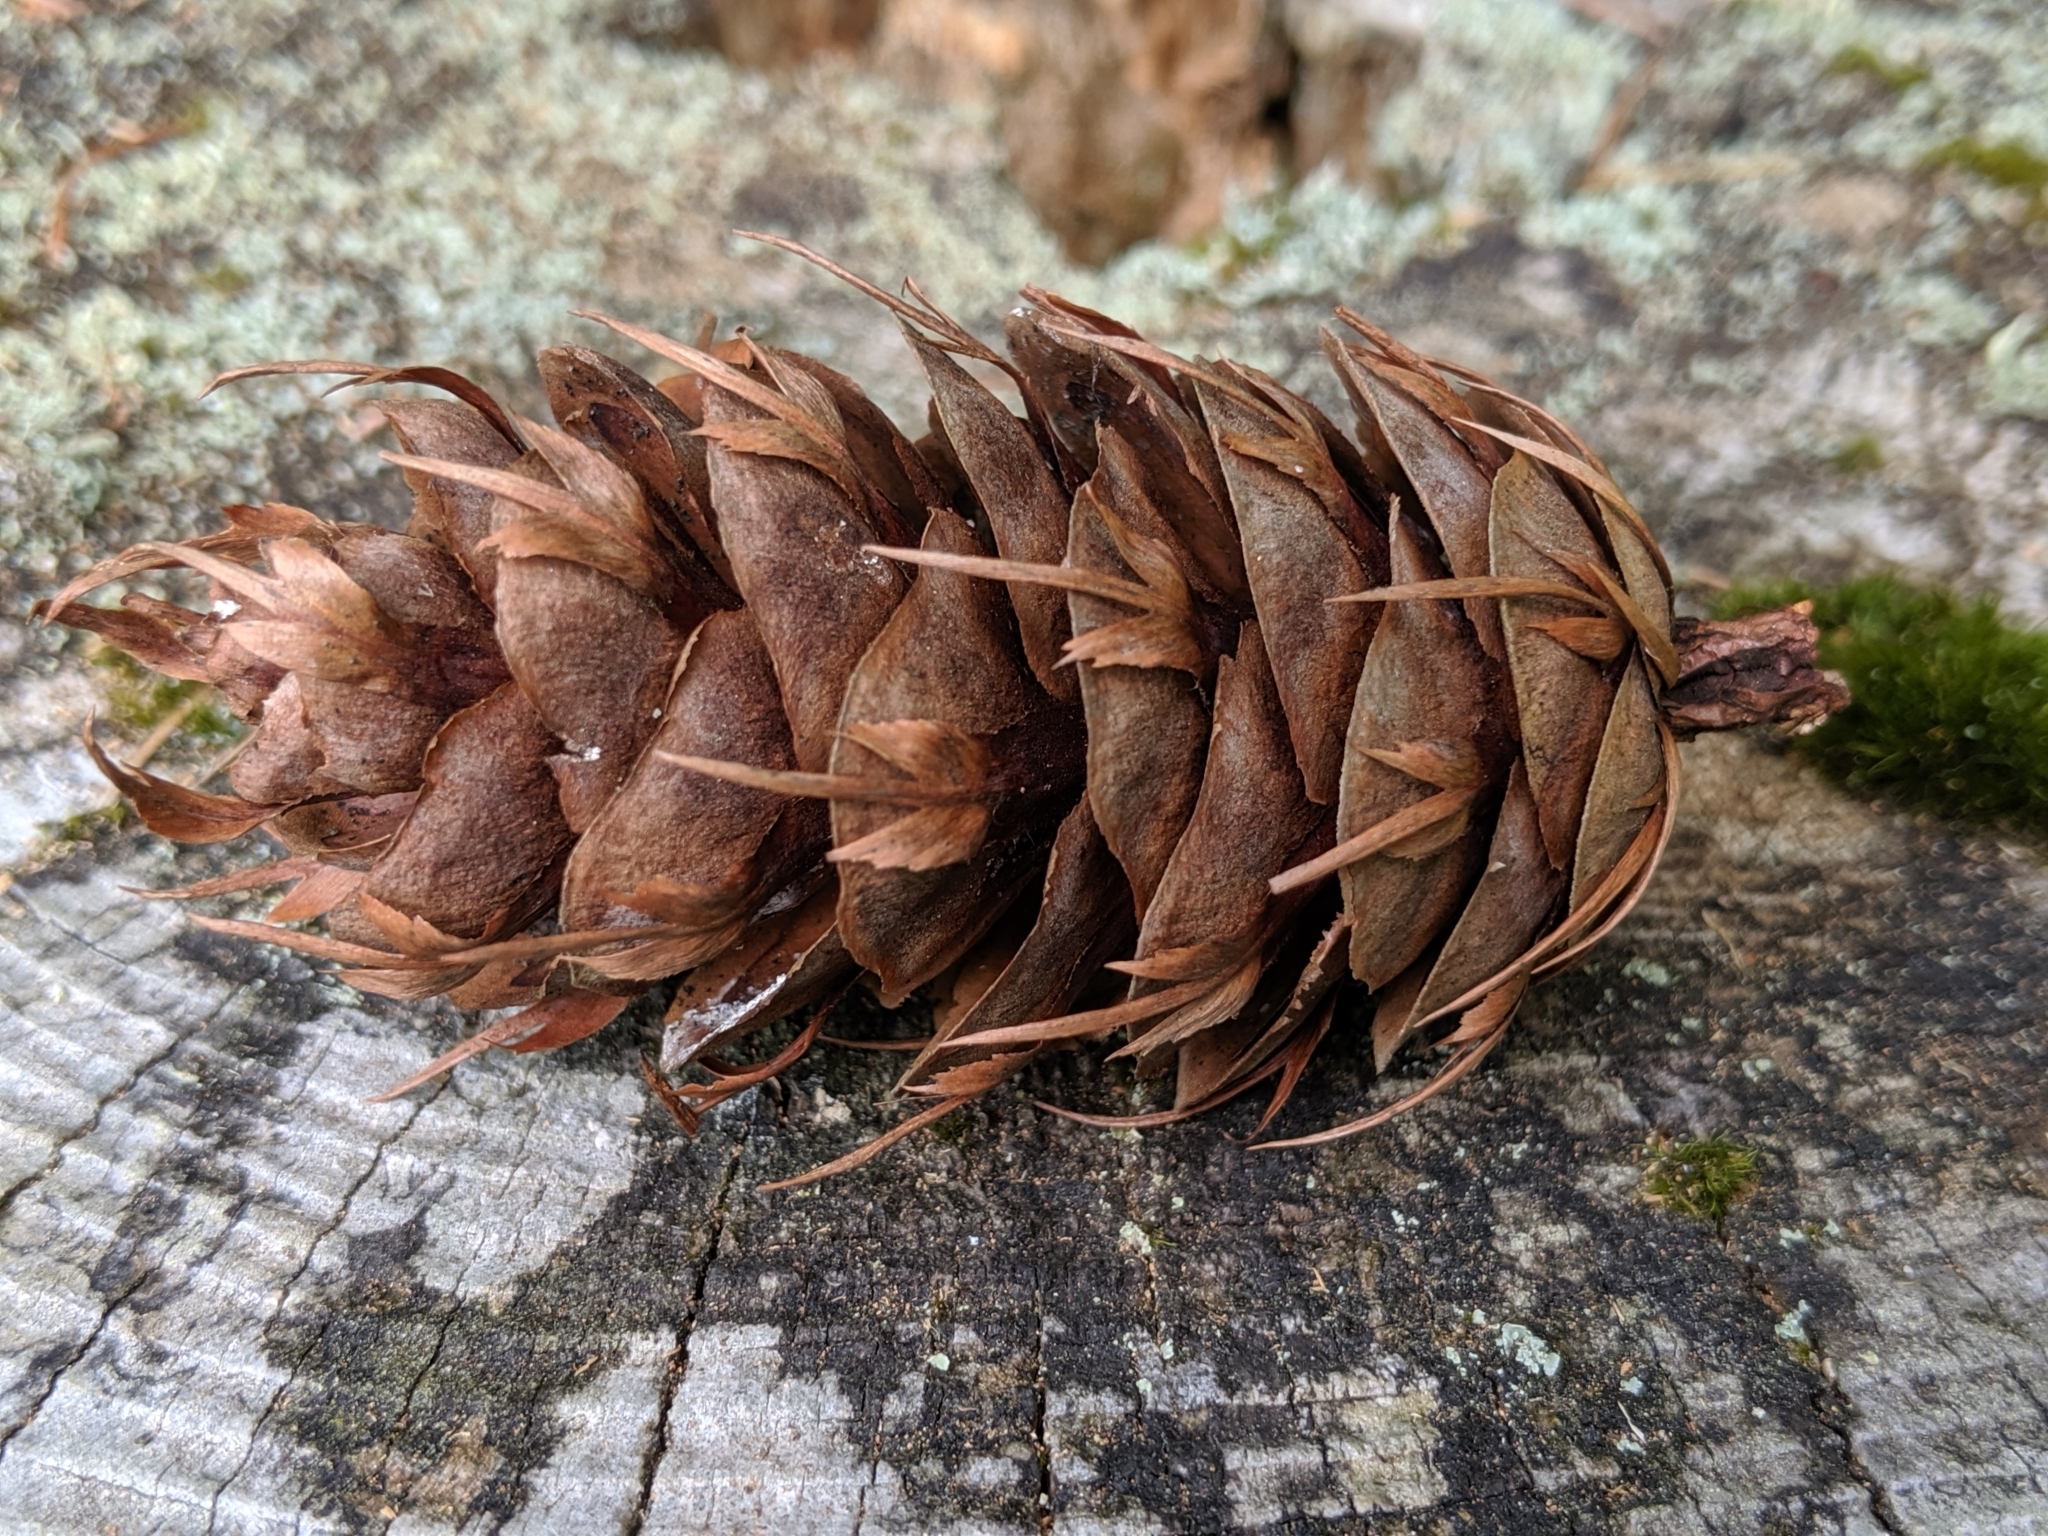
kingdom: Plantae
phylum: Tracheophyta
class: Pinopsida
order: Pinales
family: Pinaceae
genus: Pseudotsuga
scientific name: Pseudotsuga menziesii
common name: Douglas fir
